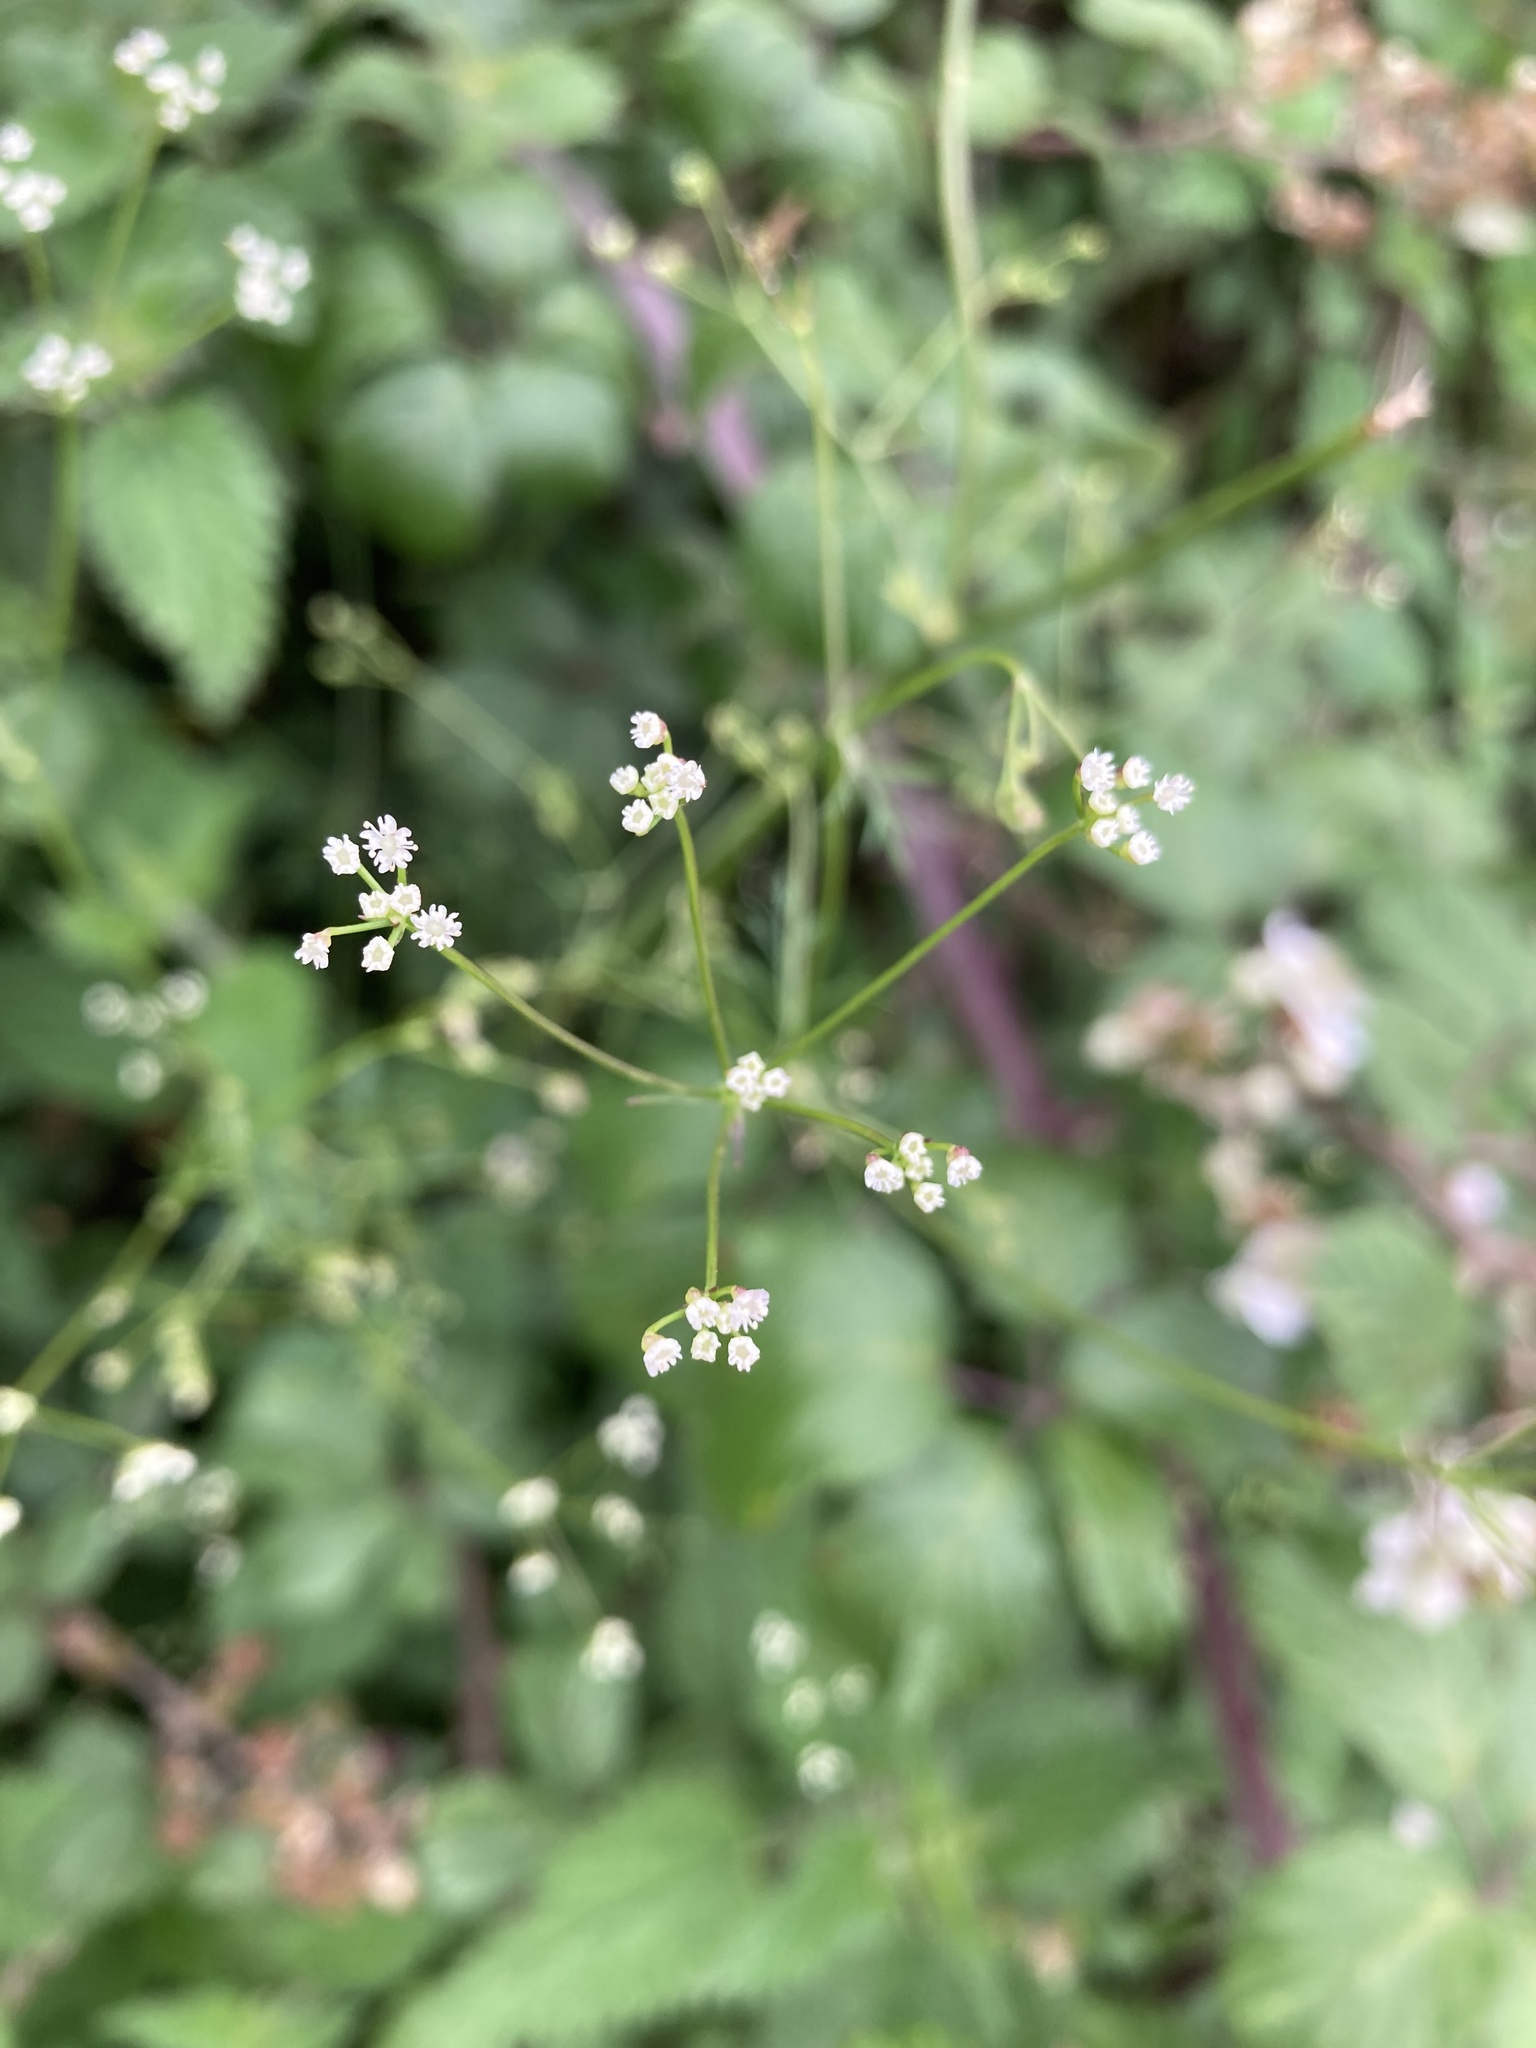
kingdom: Plantae
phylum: Tracheophyta
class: Magnoliopsida
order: Apiales
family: Apiaceae
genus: Sison
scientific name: Sison amomum
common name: Stone-parsley
